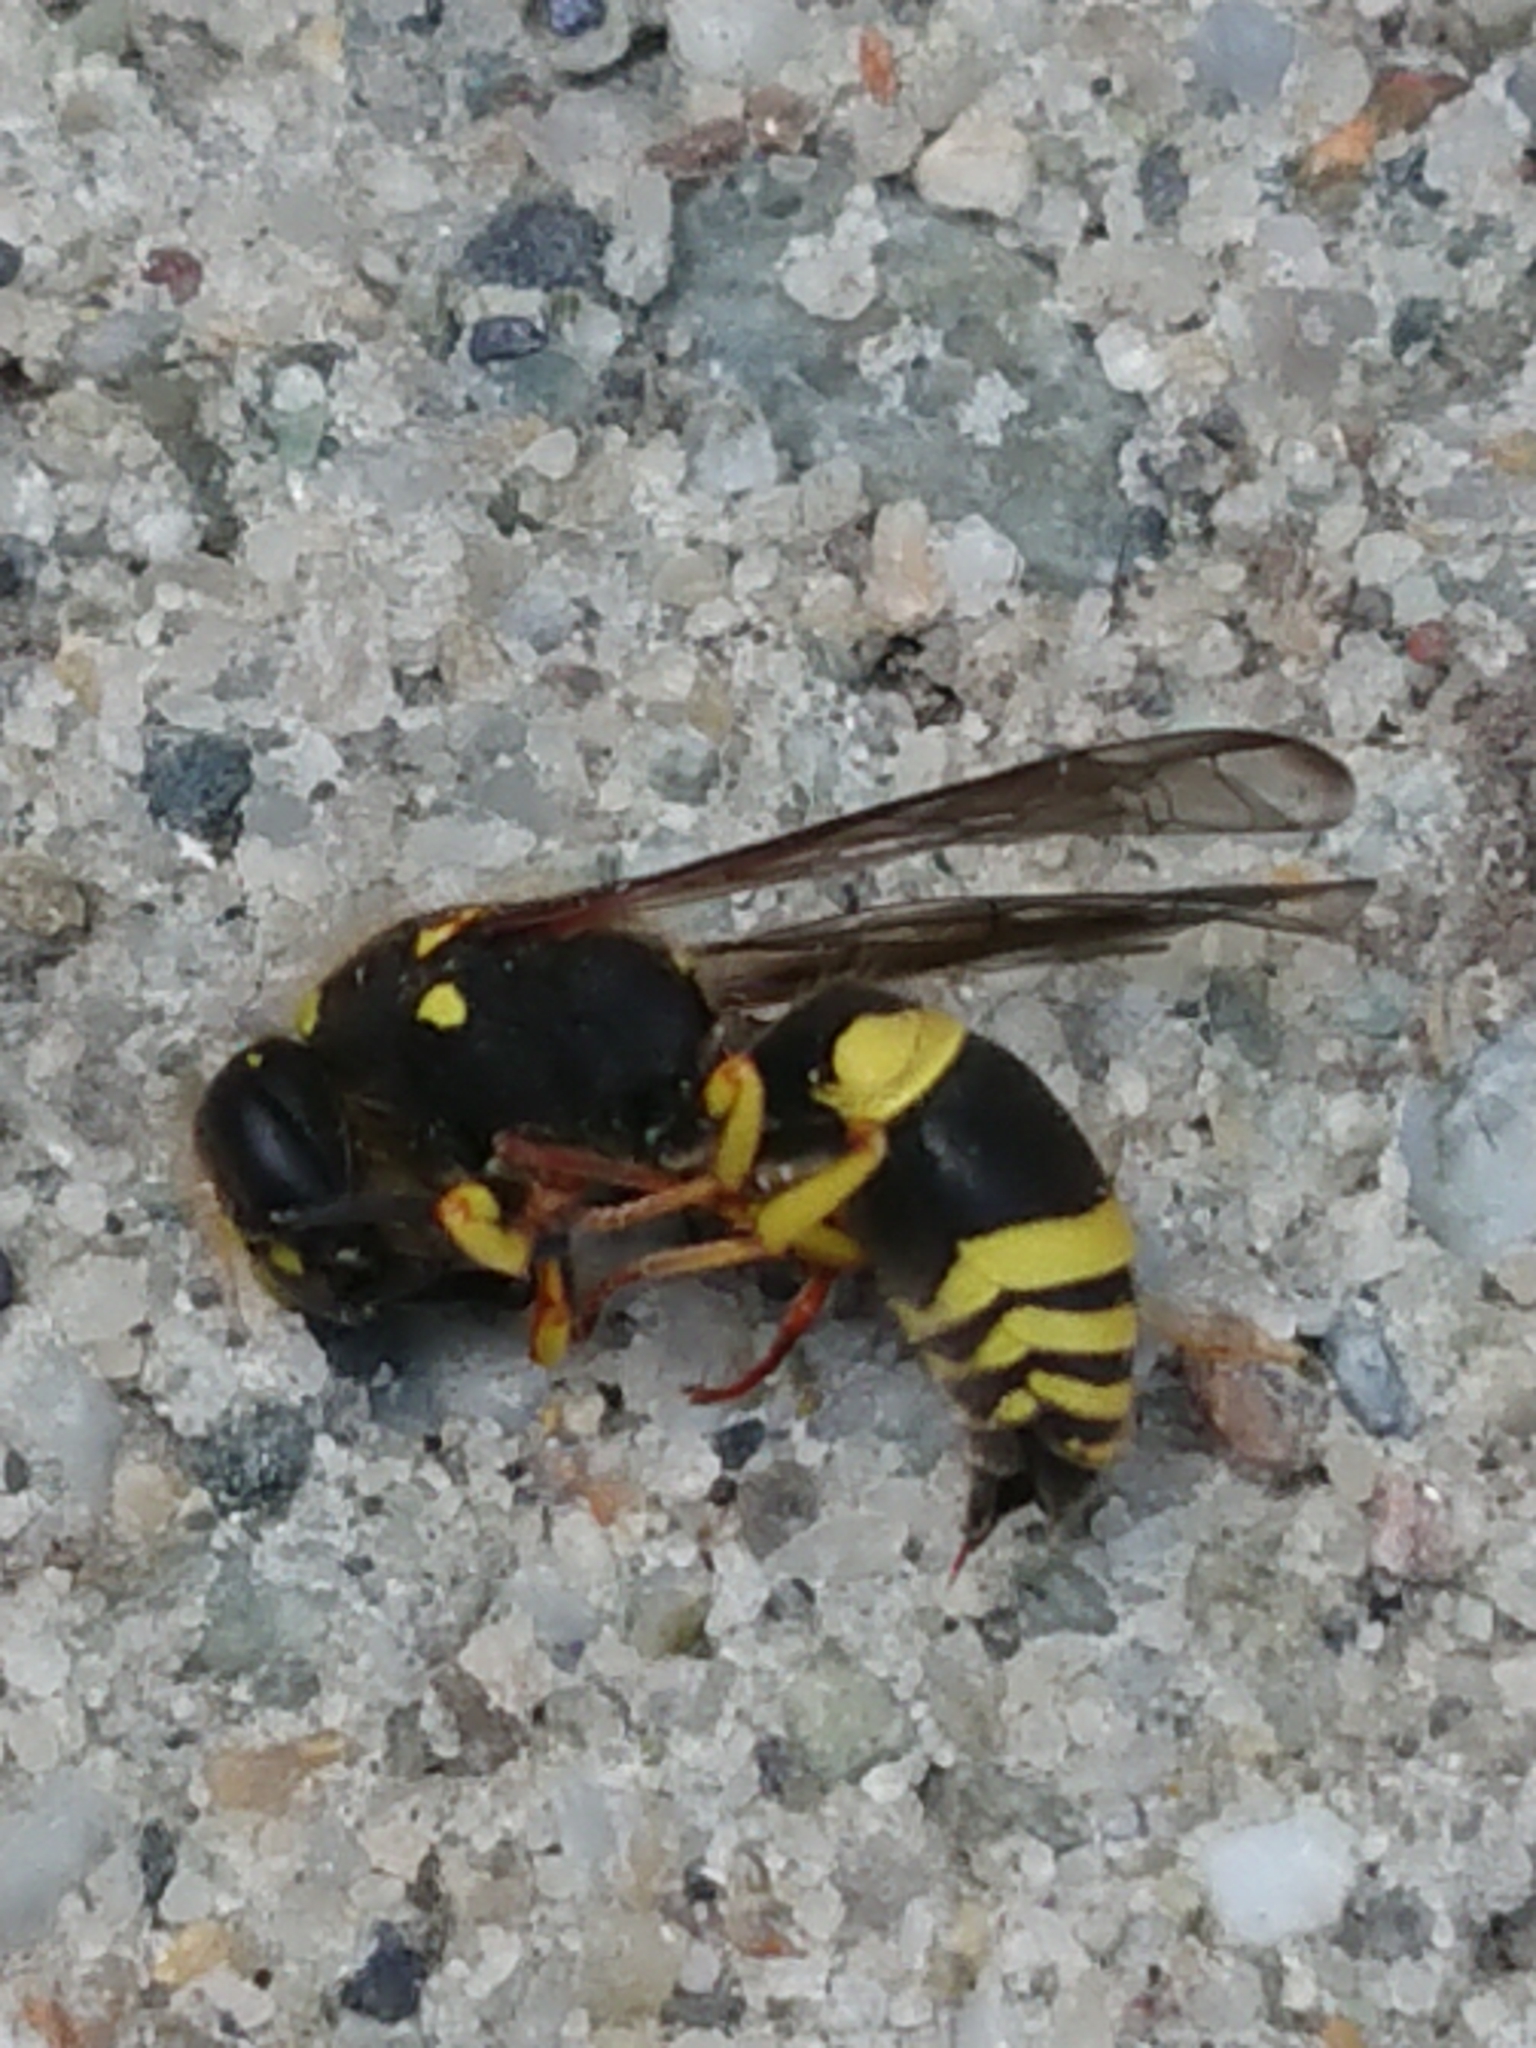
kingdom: Animalia
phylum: Arthropoda
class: Insecta
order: Hymenoptera
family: Vespidae
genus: Ancistrocerus
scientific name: Ancistrocerus gazella
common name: European tube wasp
